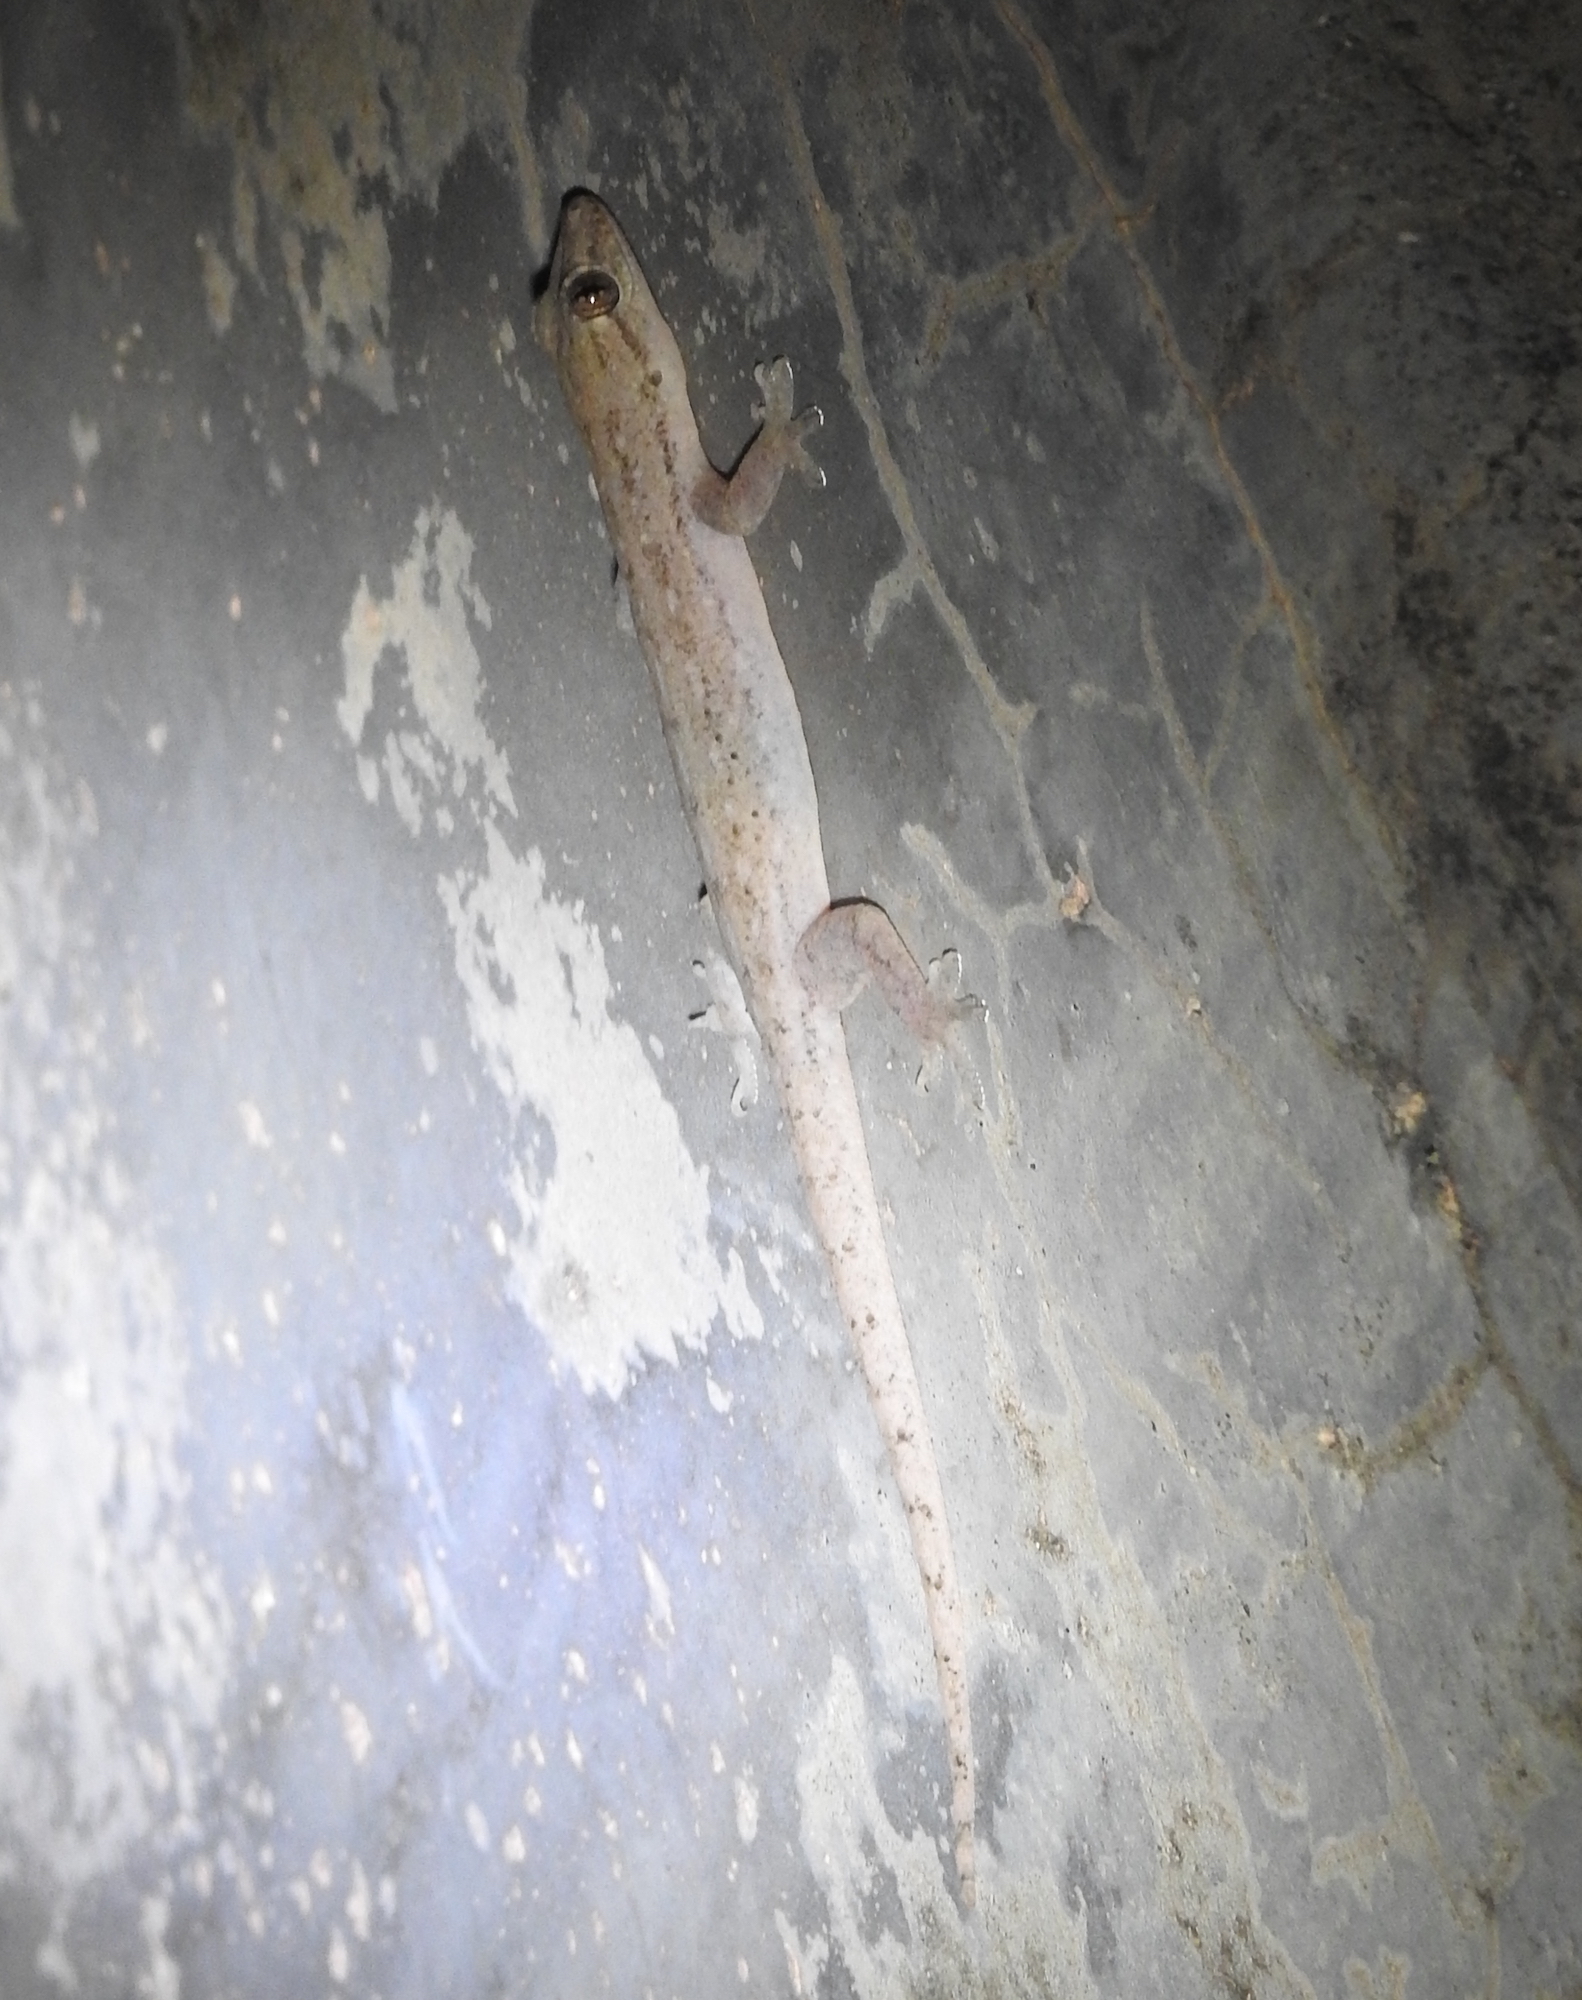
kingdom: Animalia
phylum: Chordata
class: Squamata
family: Gekkonidae
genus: Hemidactylus
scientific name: Hemidactylus frenatus
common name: Common house gecko
